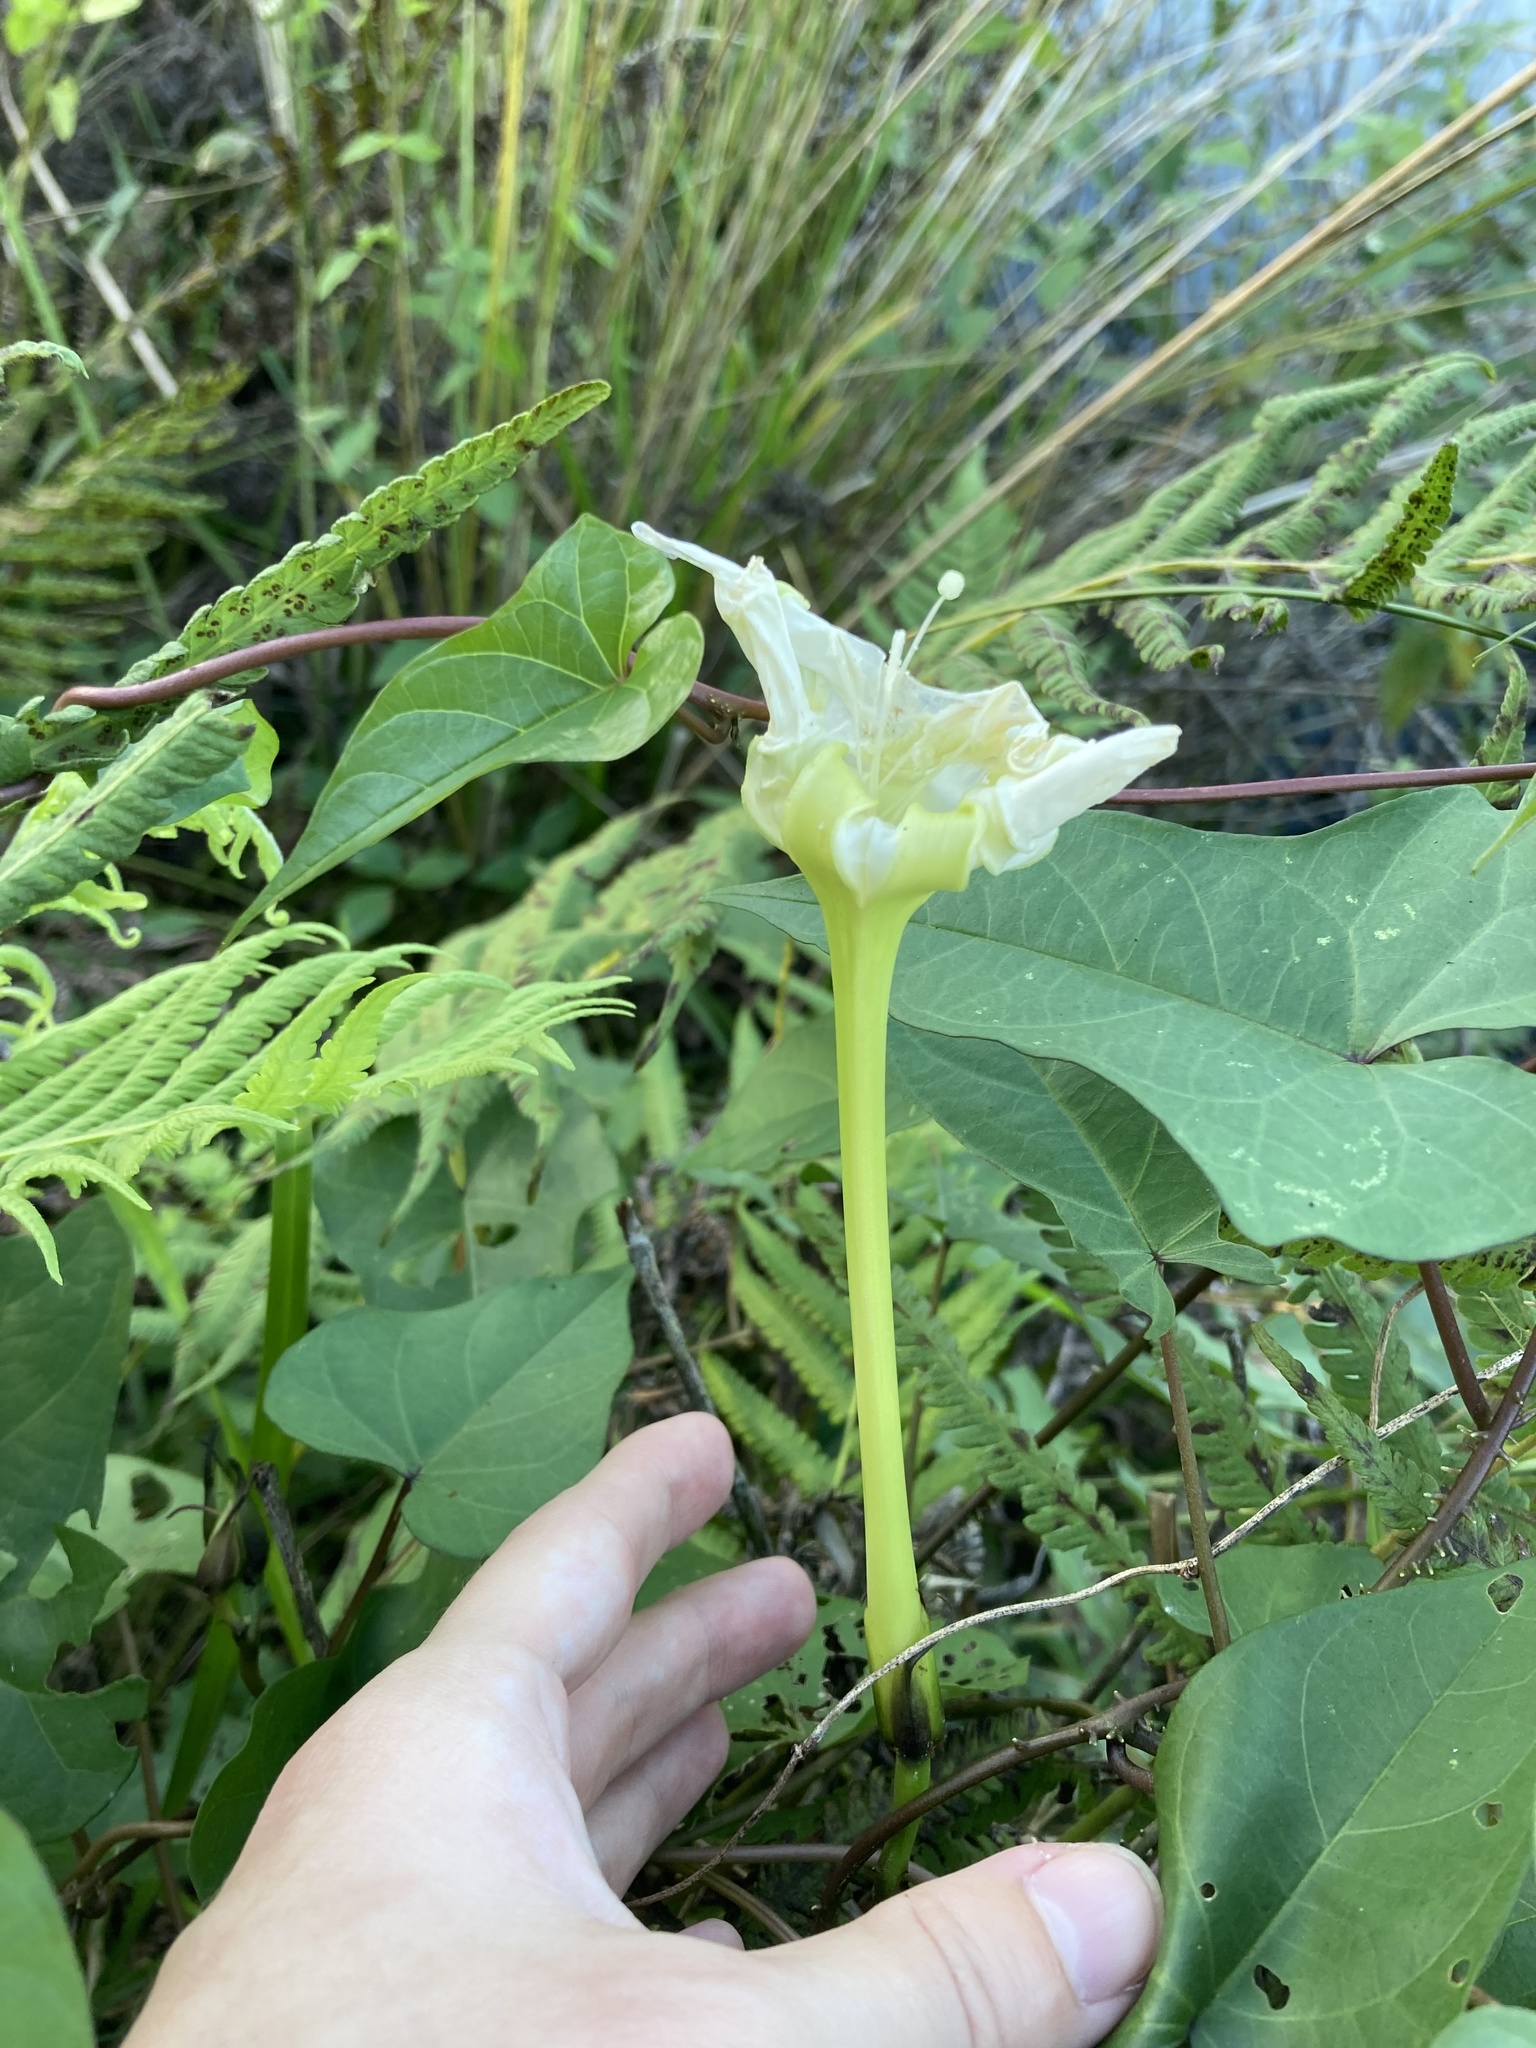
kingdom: Plantae
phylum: Tracheophyta
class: Magnoliopsida
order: Solanales
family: Convolvulaceae
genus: Ipomoea
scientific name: Ipomoea alba
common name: Moonflower
